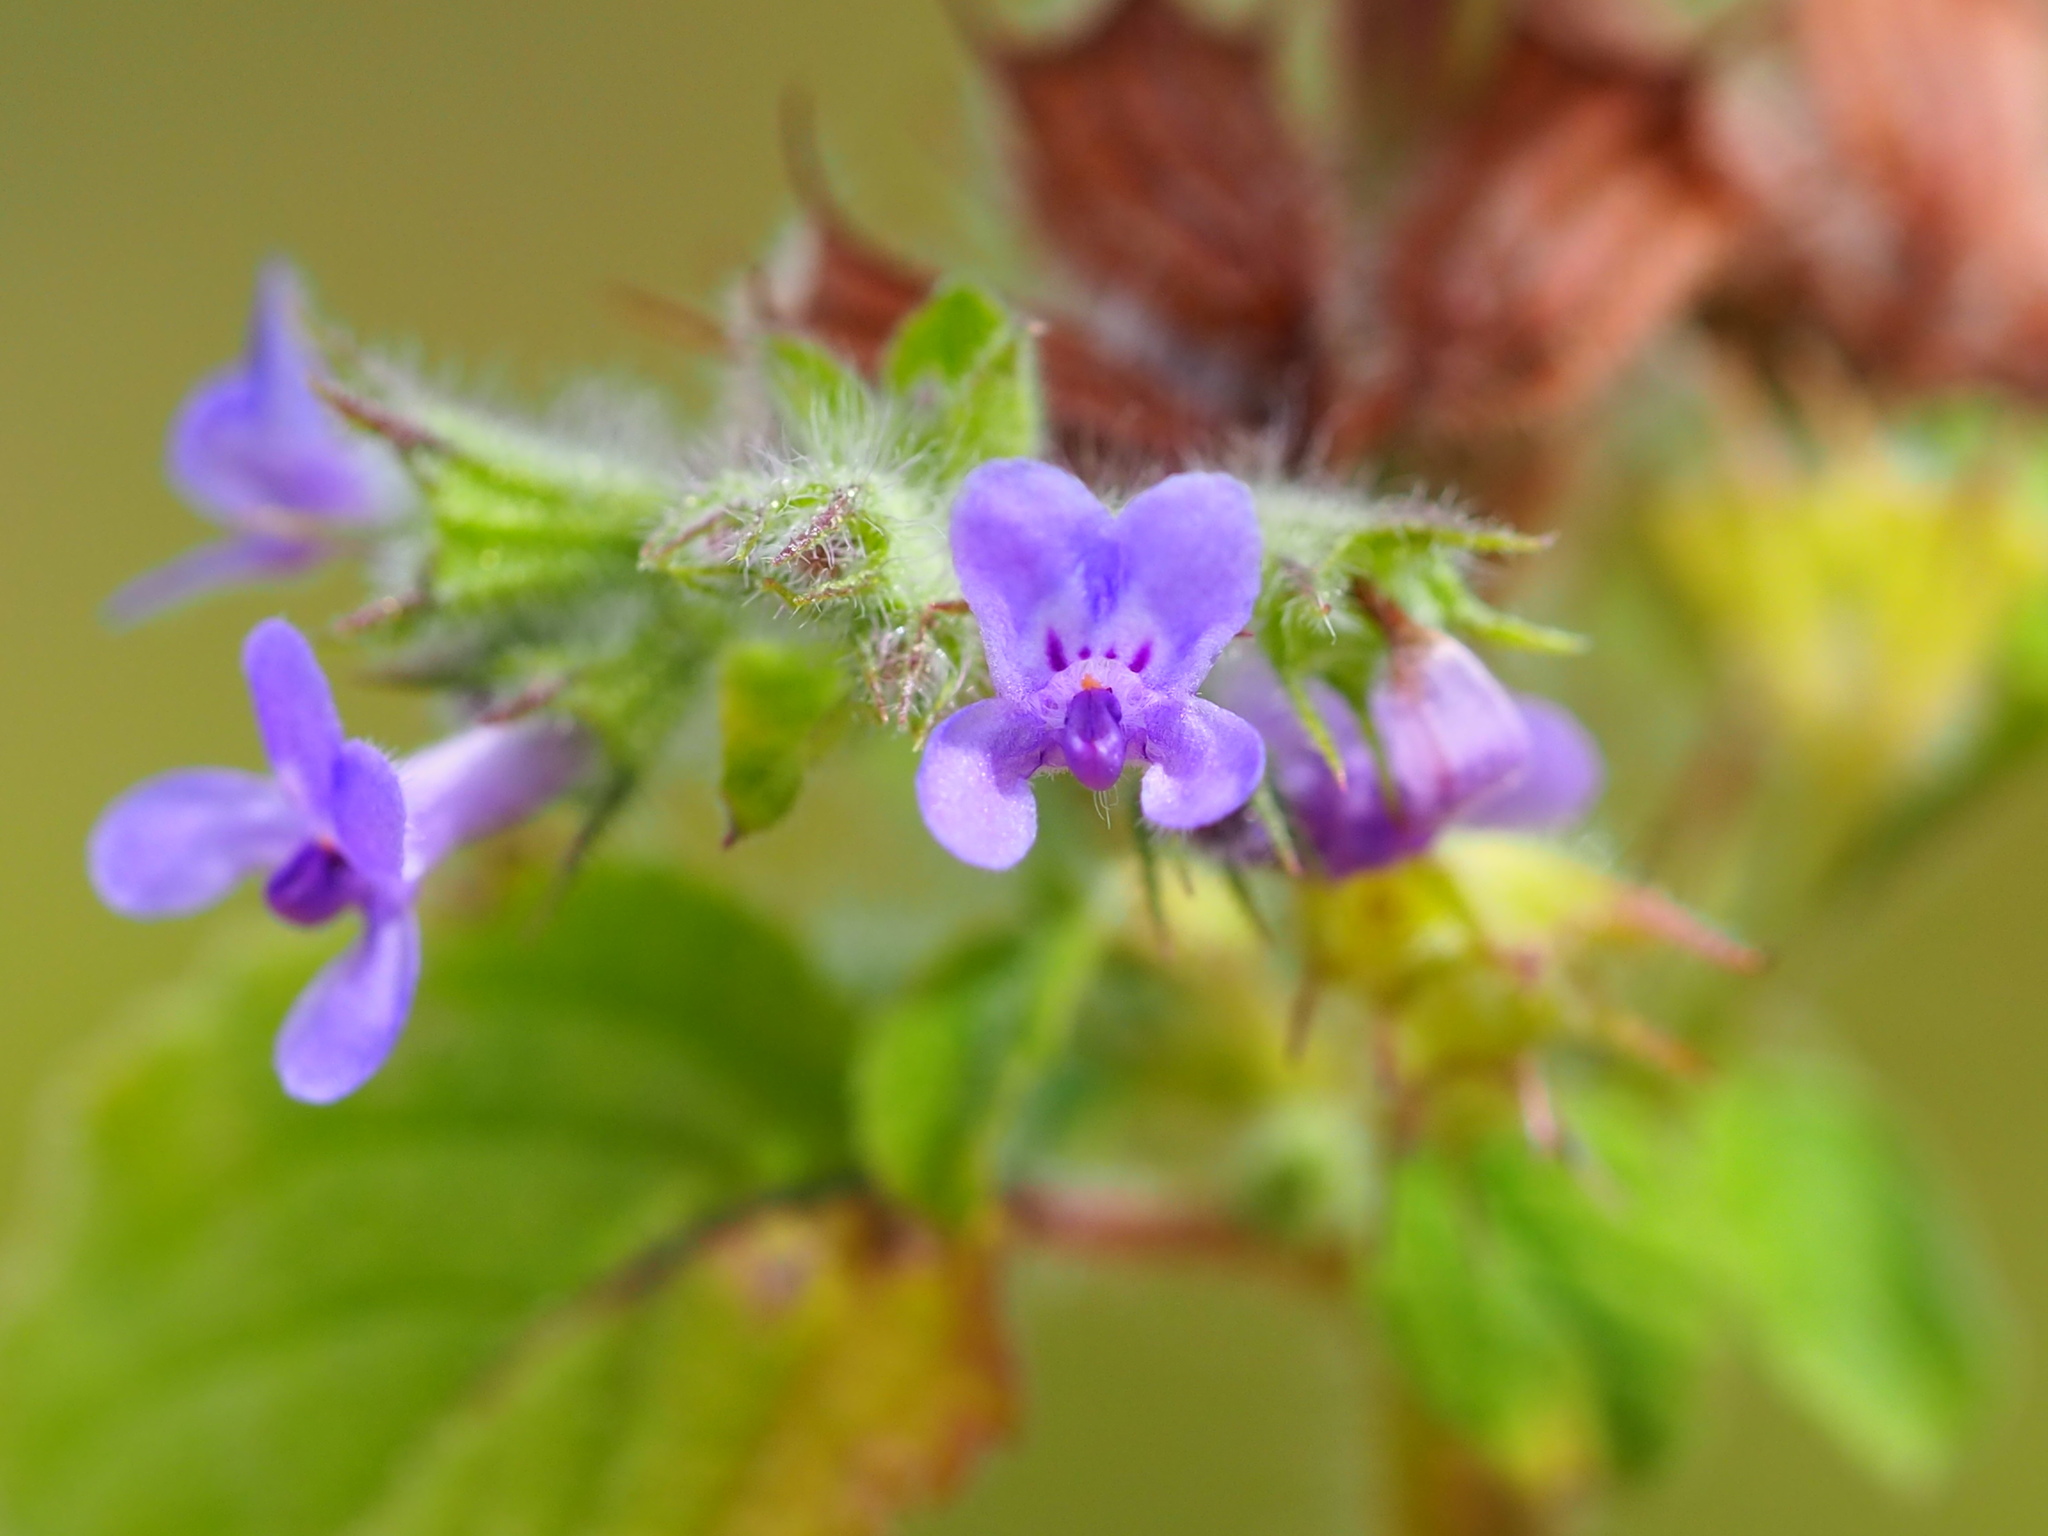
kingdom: Plantae
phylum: Tracheophyta
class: Magnoliopsida
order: Lamiales
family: Lamiaceae
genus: Mesosphaerum
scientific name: Mesosphaerum suaveolens
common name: Pignut
